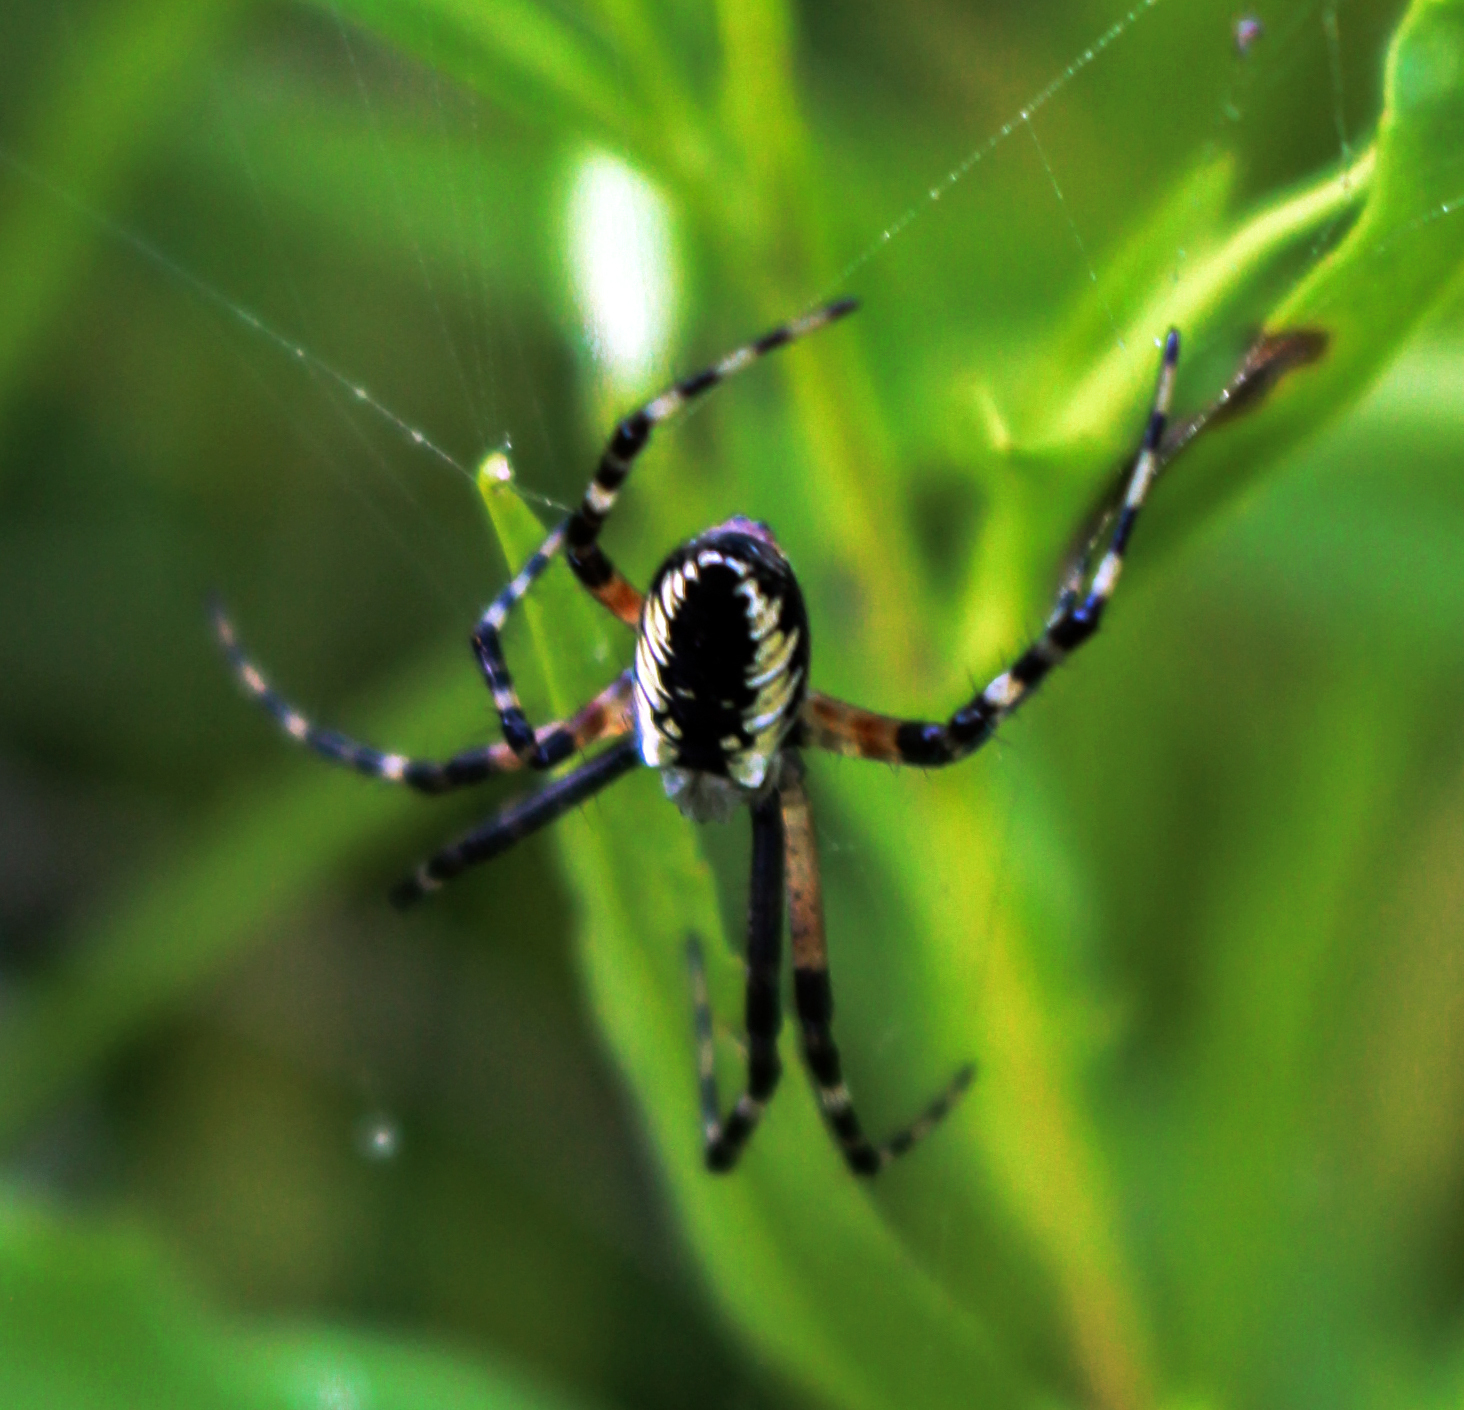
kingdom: Animalia
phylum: Arthropoda
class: Arachnida
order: Araneae
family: Araneidae
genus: Argiope
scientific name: Argiope aurantia
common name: Orb weavers
